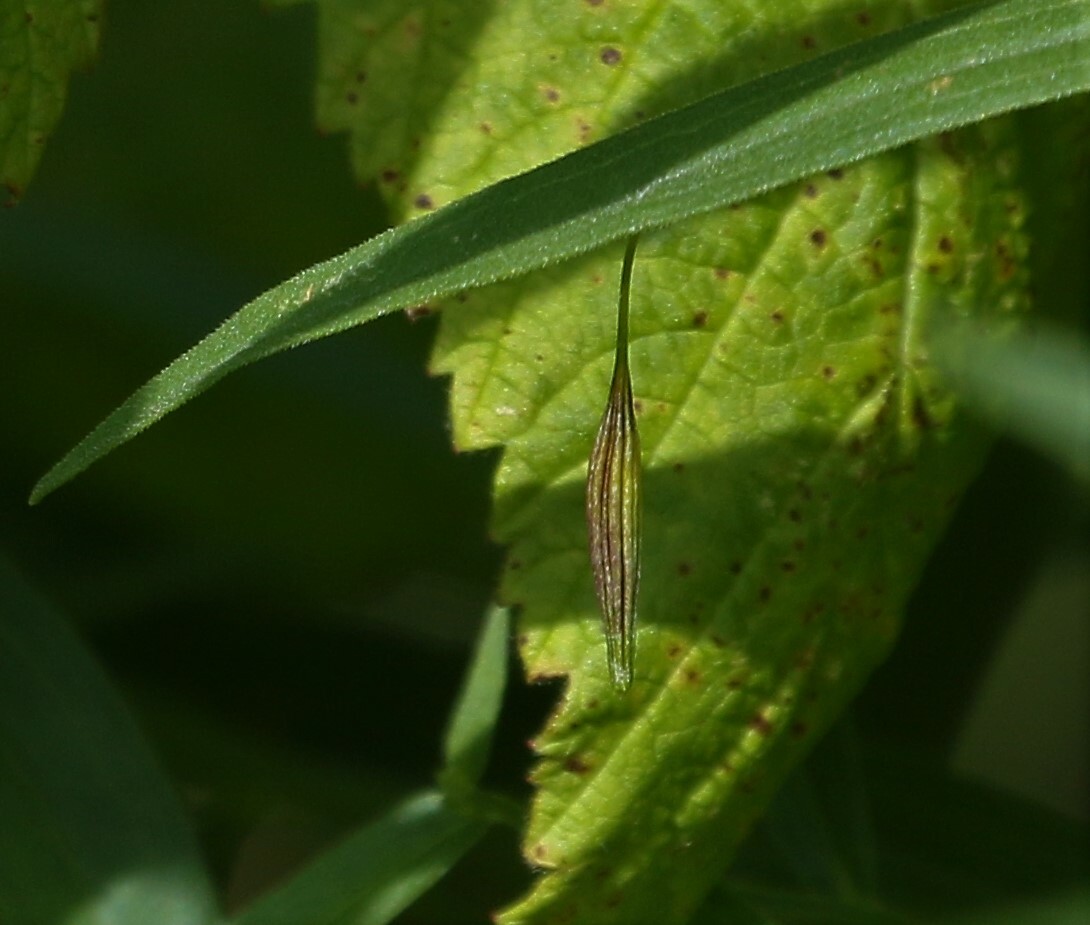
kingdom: Animalia
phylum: Arthropoda
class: Insecta
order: Diptera
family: Cecidomyiidae
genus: Rhopalomyia
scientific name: Rhopalomyia pedicellata
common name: Goldentop pedicellate gall midge
